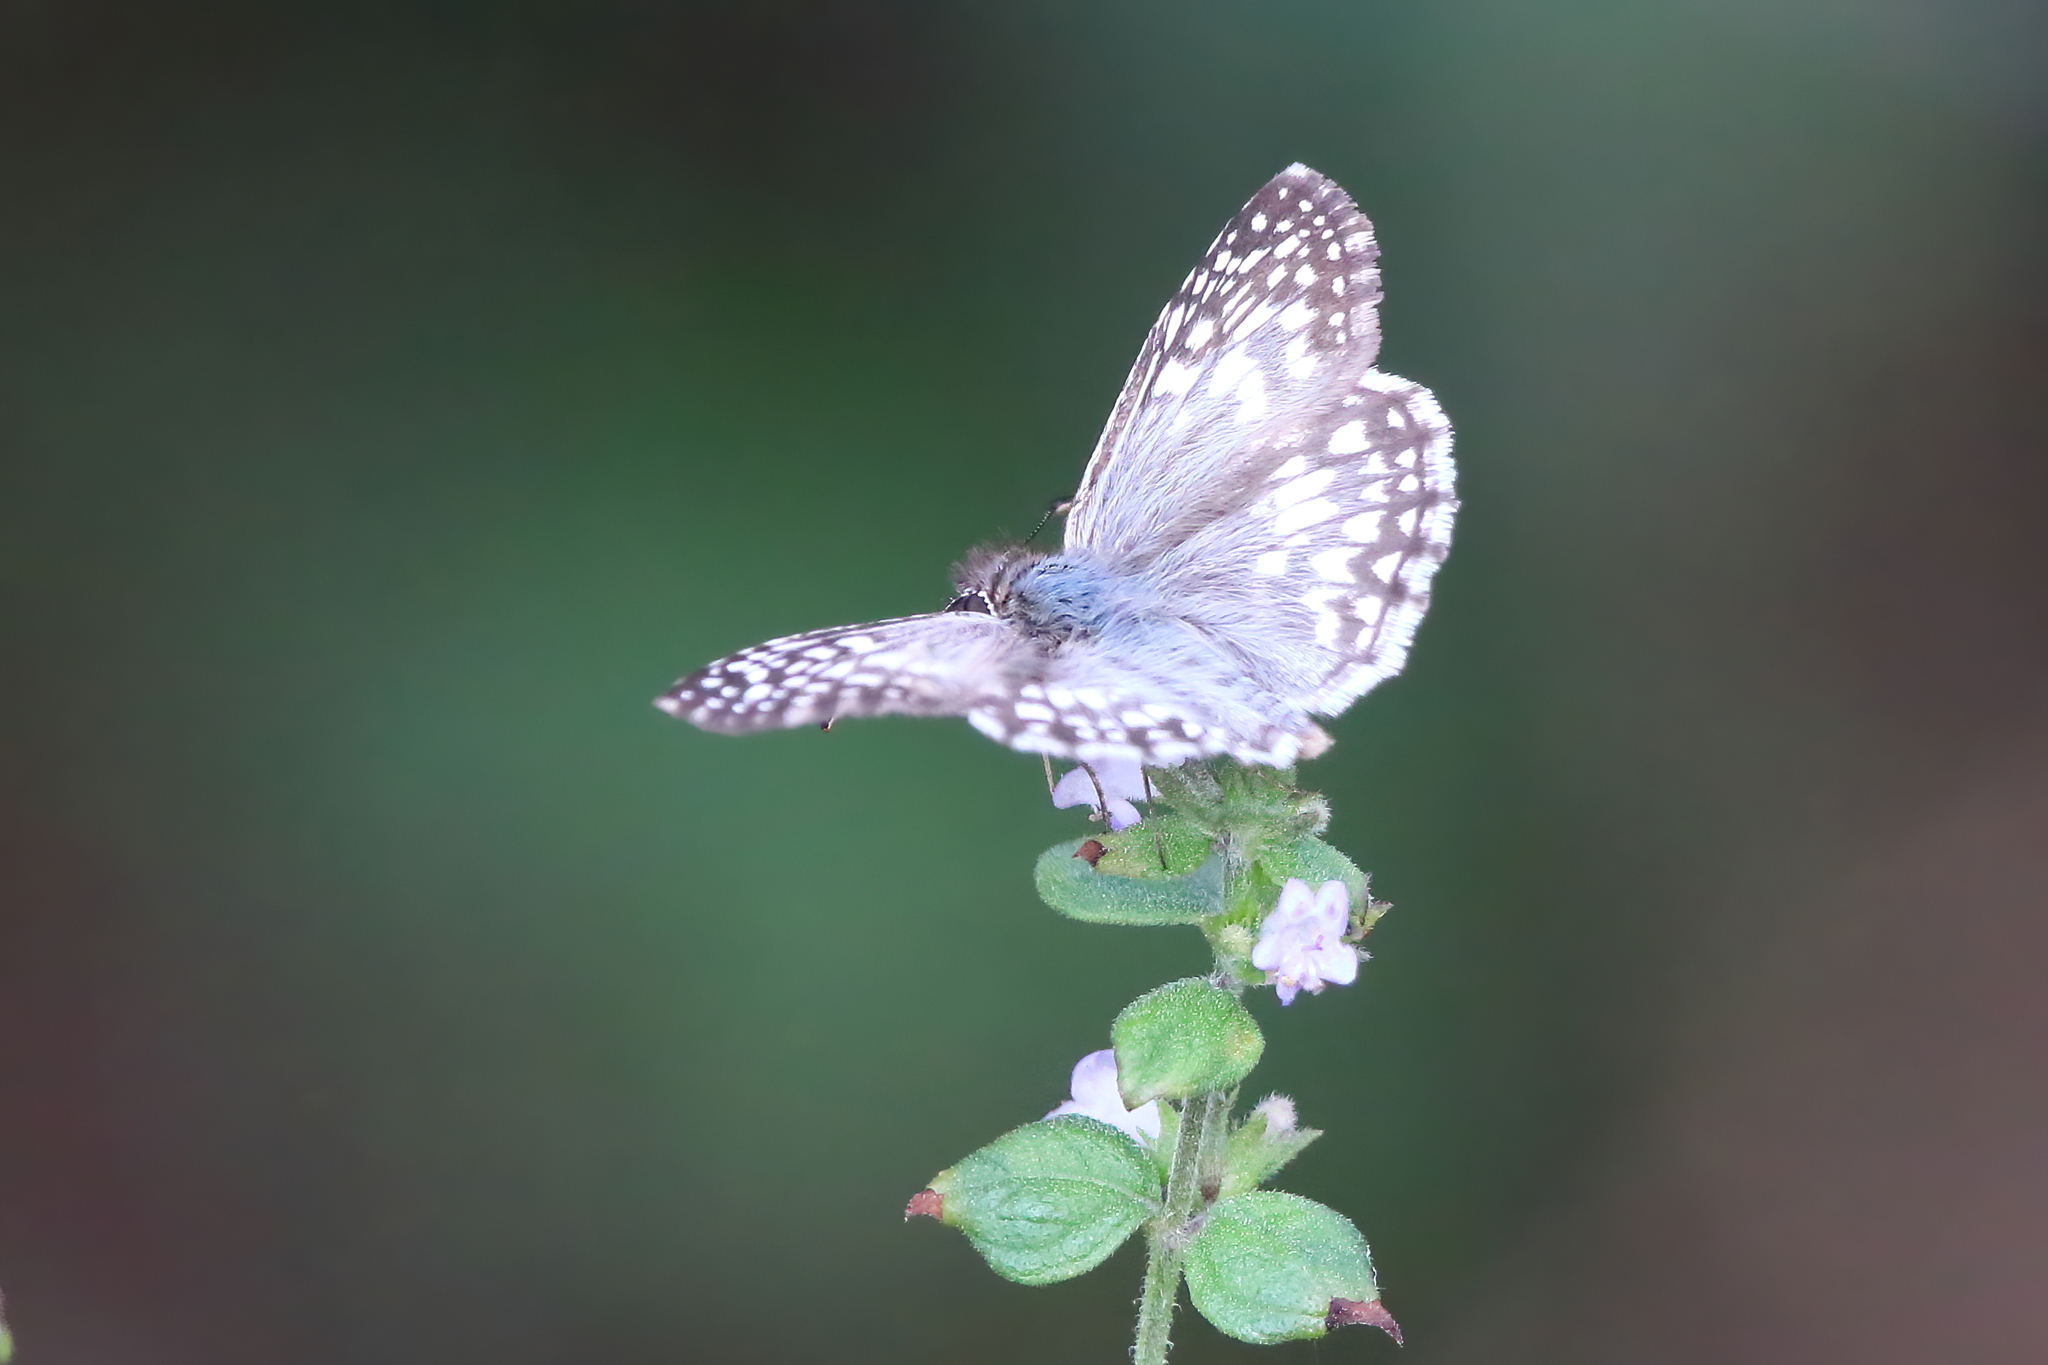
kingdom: Animalia
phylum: Arthropoda
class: Insecta
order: Lepidoptera
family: Hesperiidae
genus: Pyrgus
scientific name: Pyrgus oileus
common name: Tropical checkered-skipper
